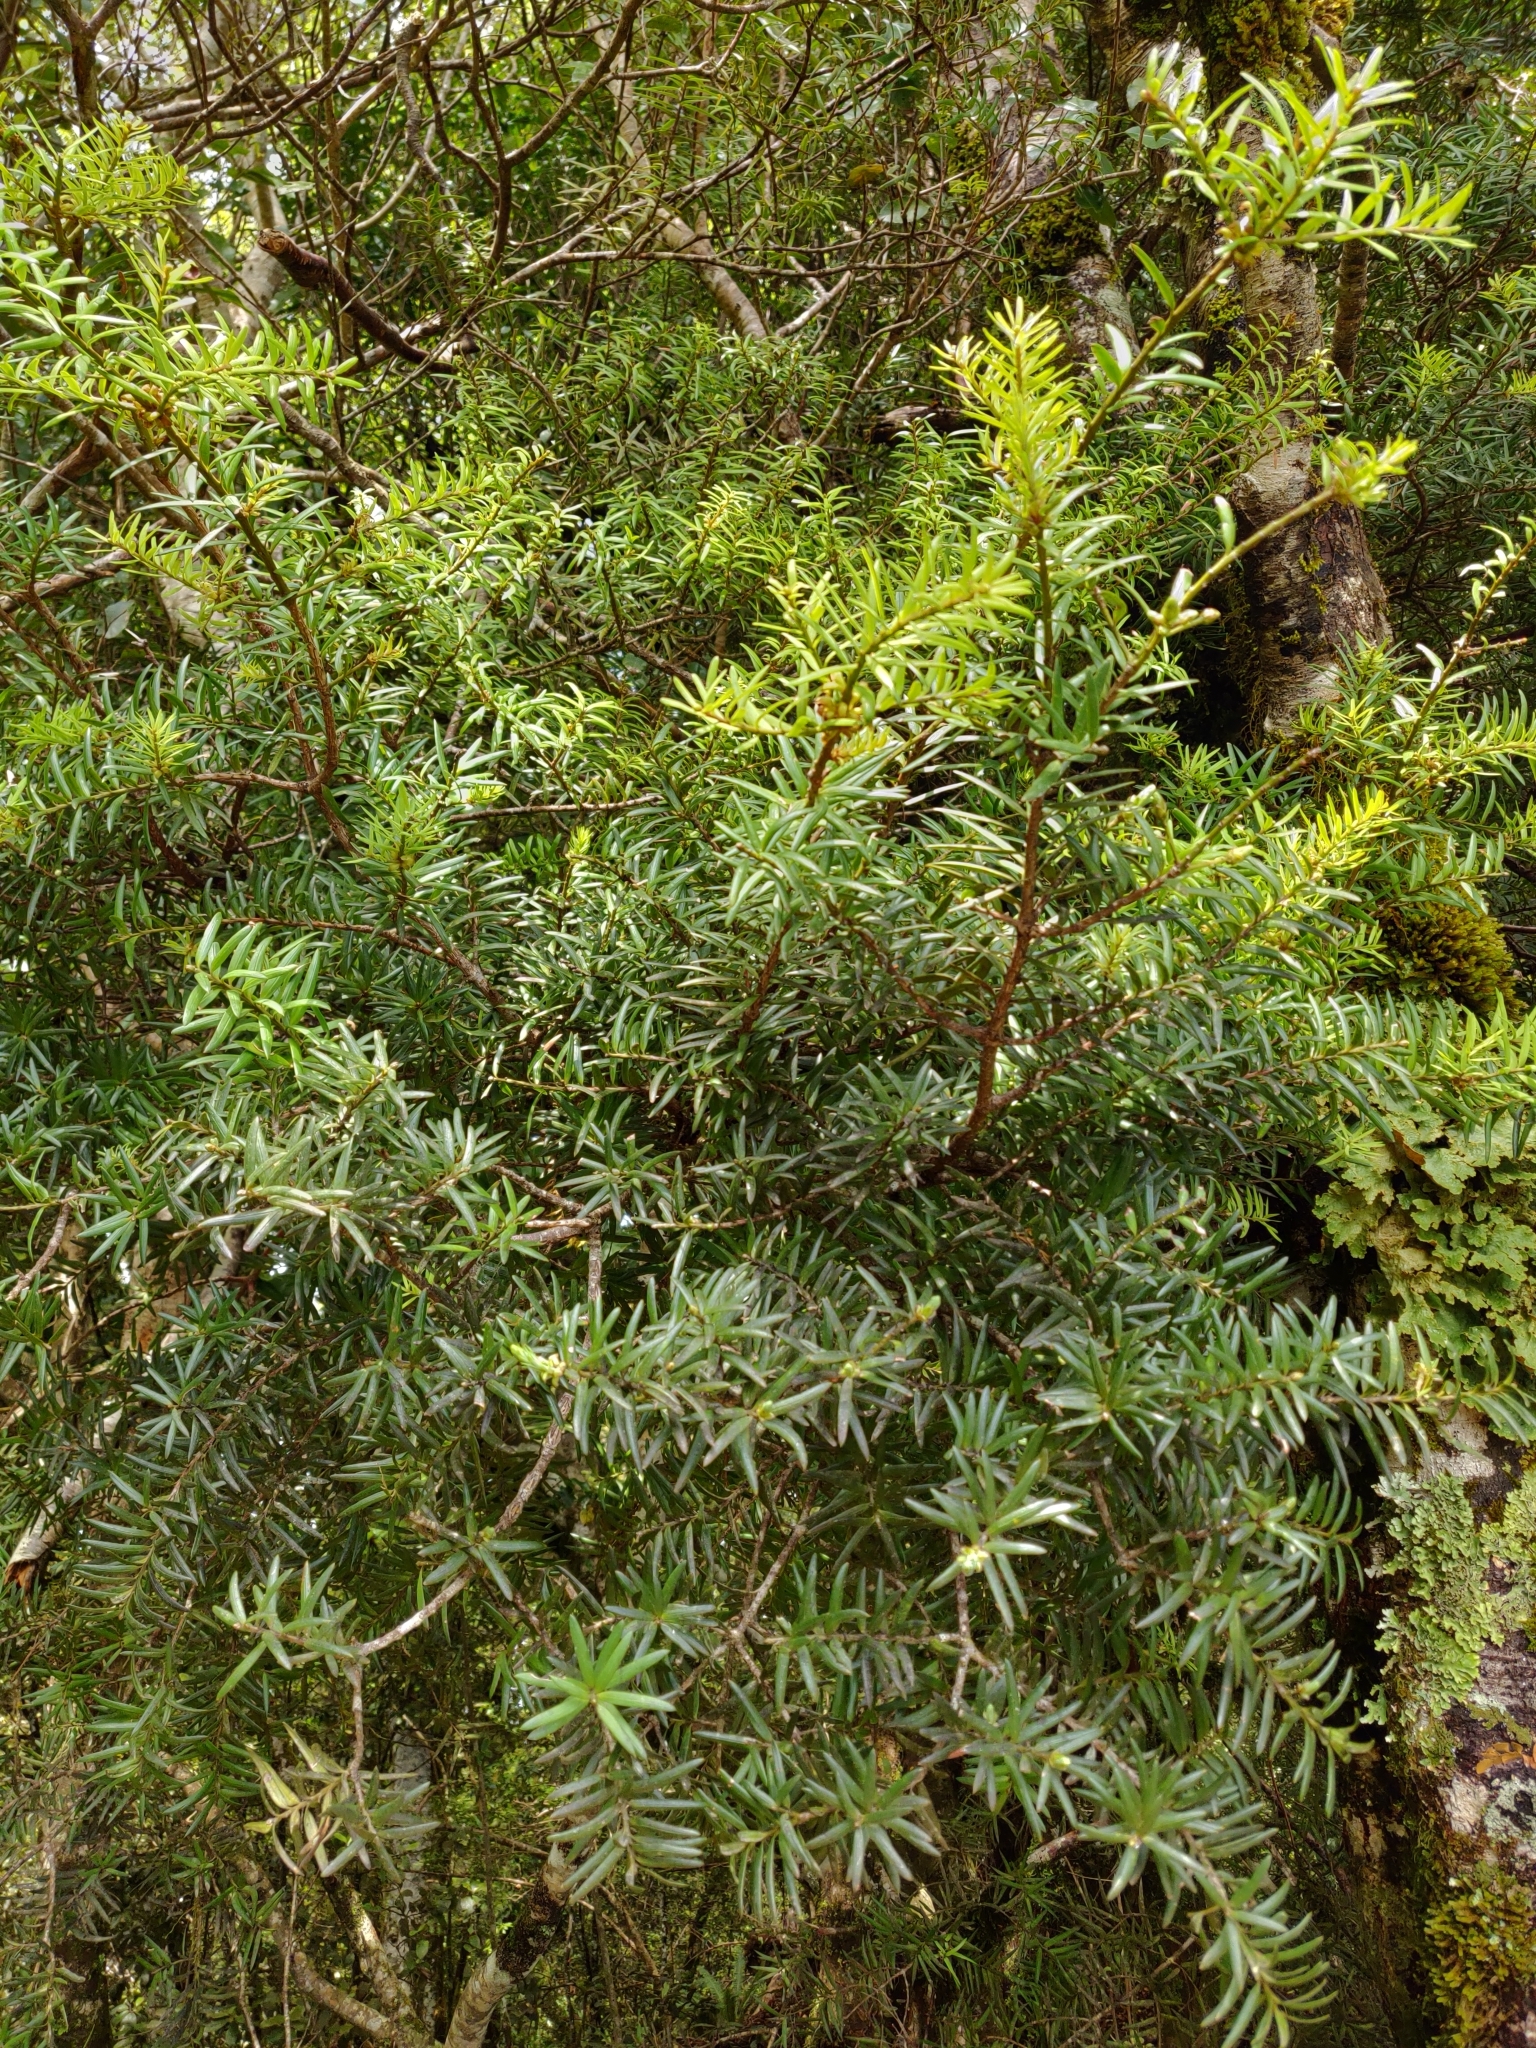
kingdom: Plantae
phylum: Tracheophyta
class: Pinopsida
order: Pinales
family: Podocarpaceae
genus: Podocarpus
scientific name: Podocarpus totara
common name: Totara
